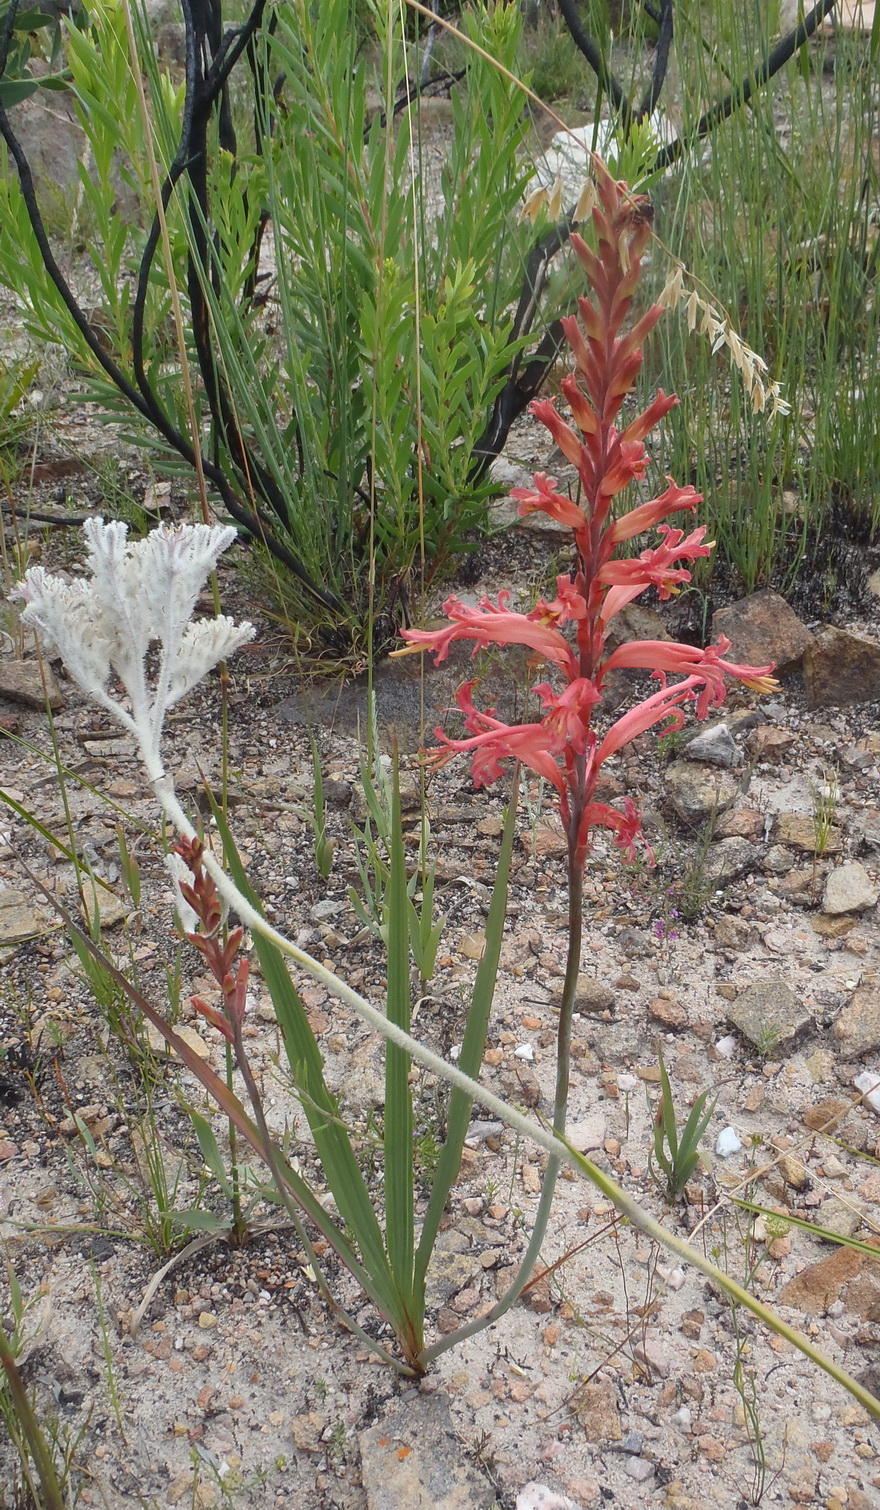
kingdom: Plantae
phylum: Tracheophyta
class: Liliopsida
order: Asparagales
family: Iridaceae
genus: Tritoniopsis
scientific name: Tritoniopsis antholyza
